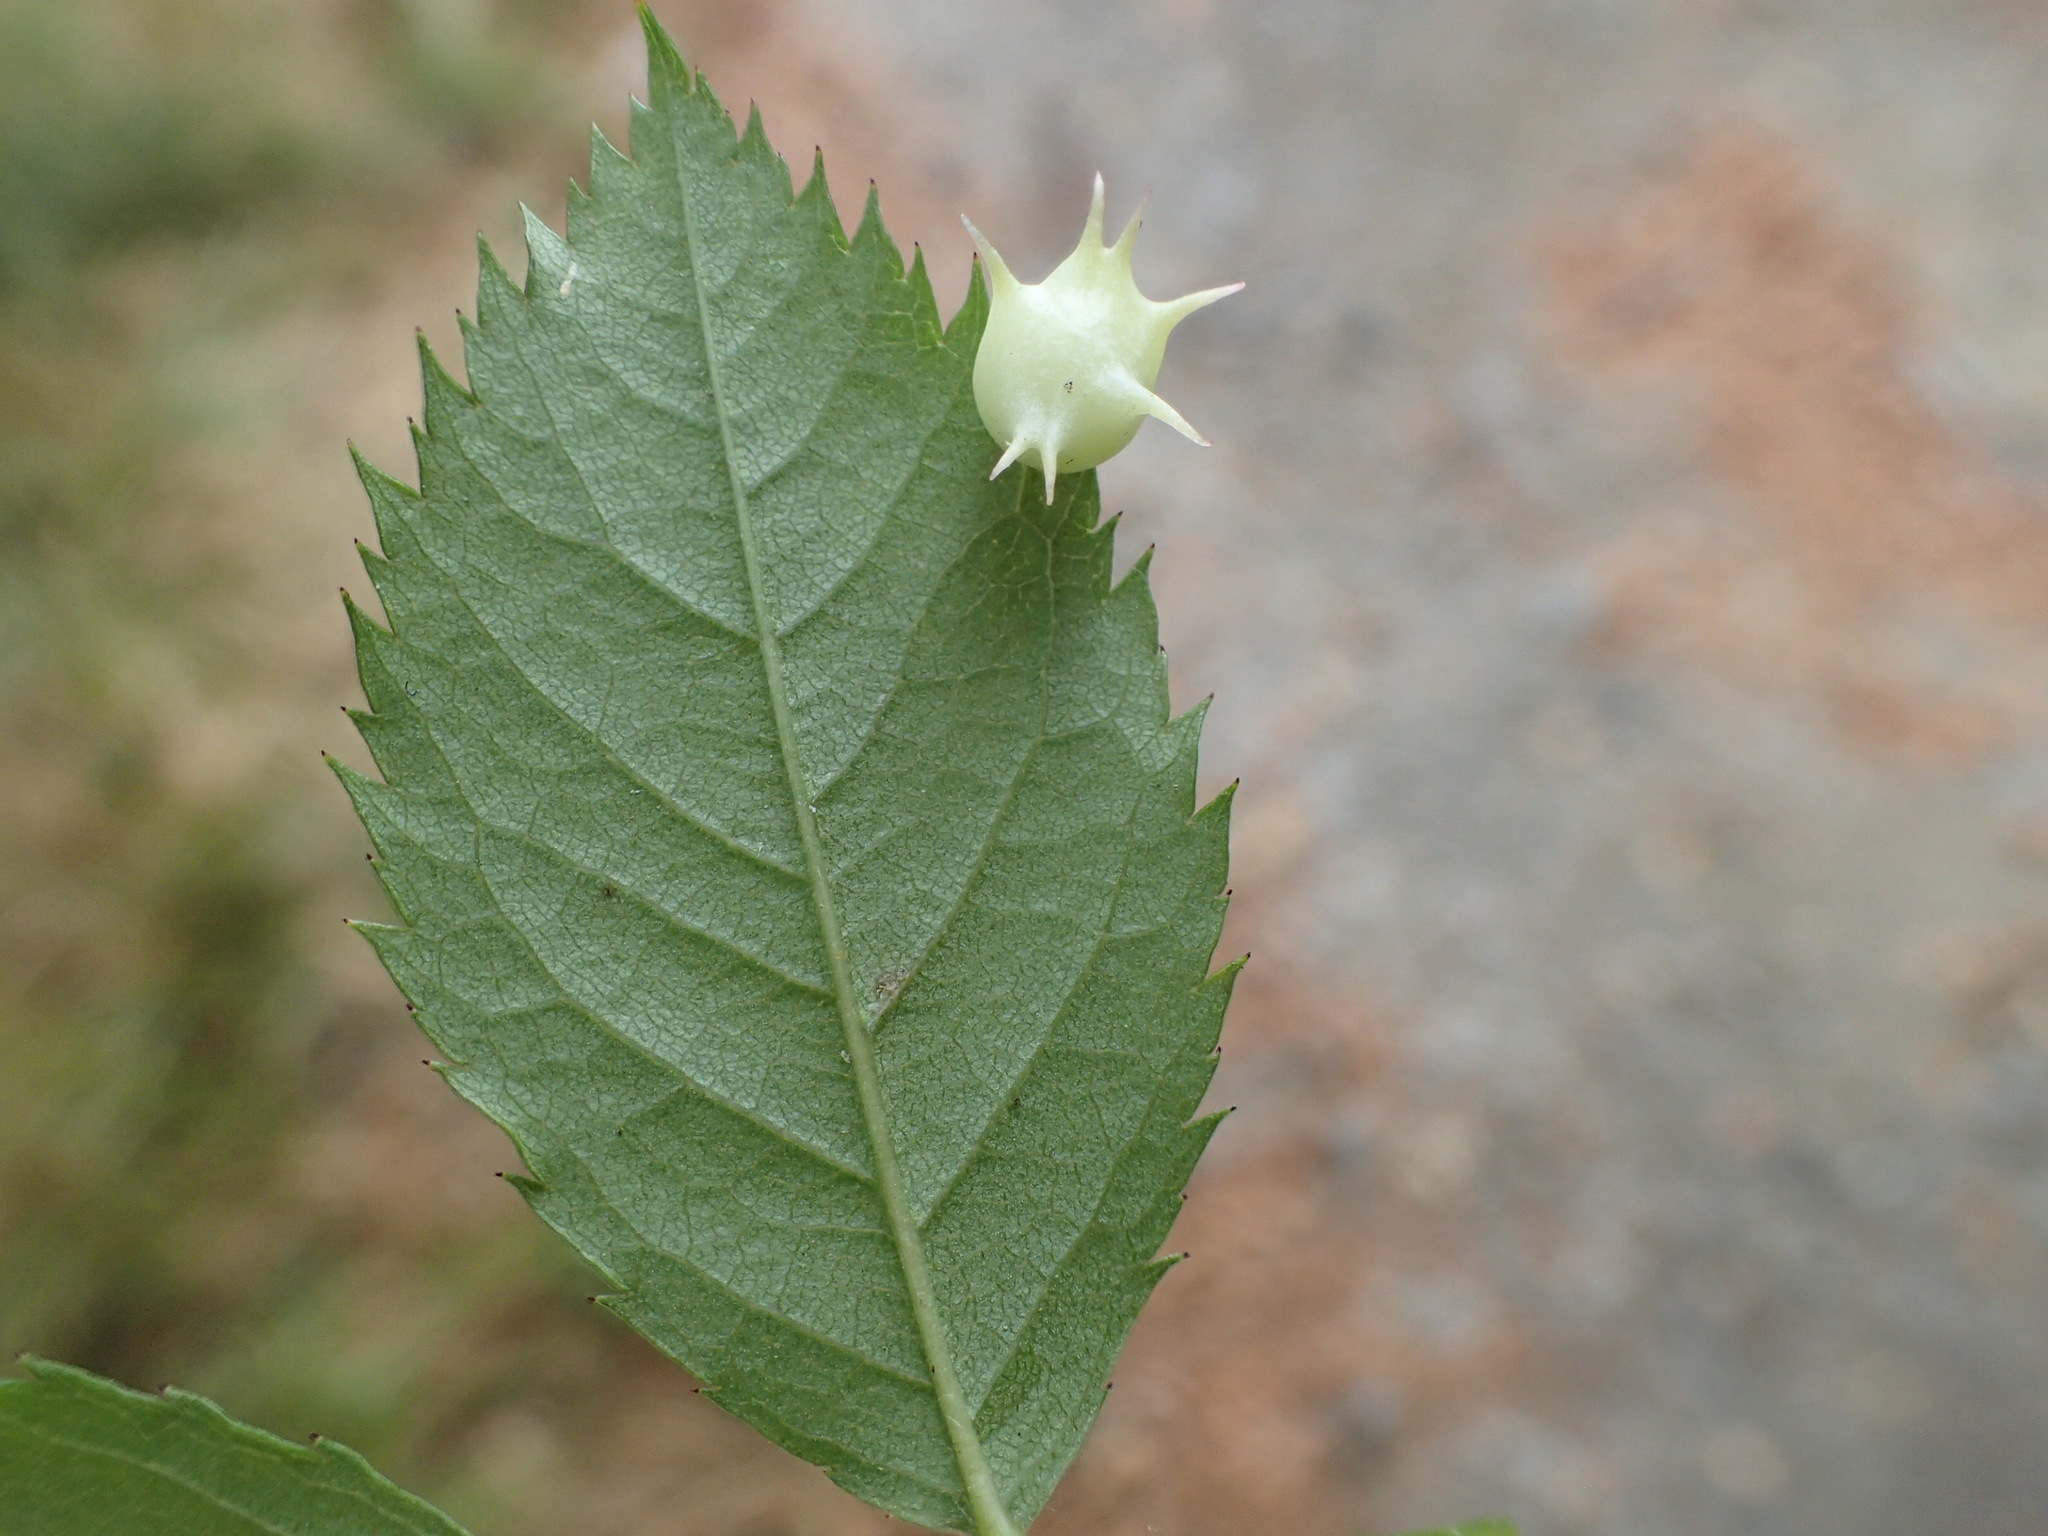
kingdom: Animalia
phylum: Arthropoda
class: Insecta
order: Hymenoptera
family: Cynipidae
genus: Diplolepis
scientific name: Diplolepis nervosa
